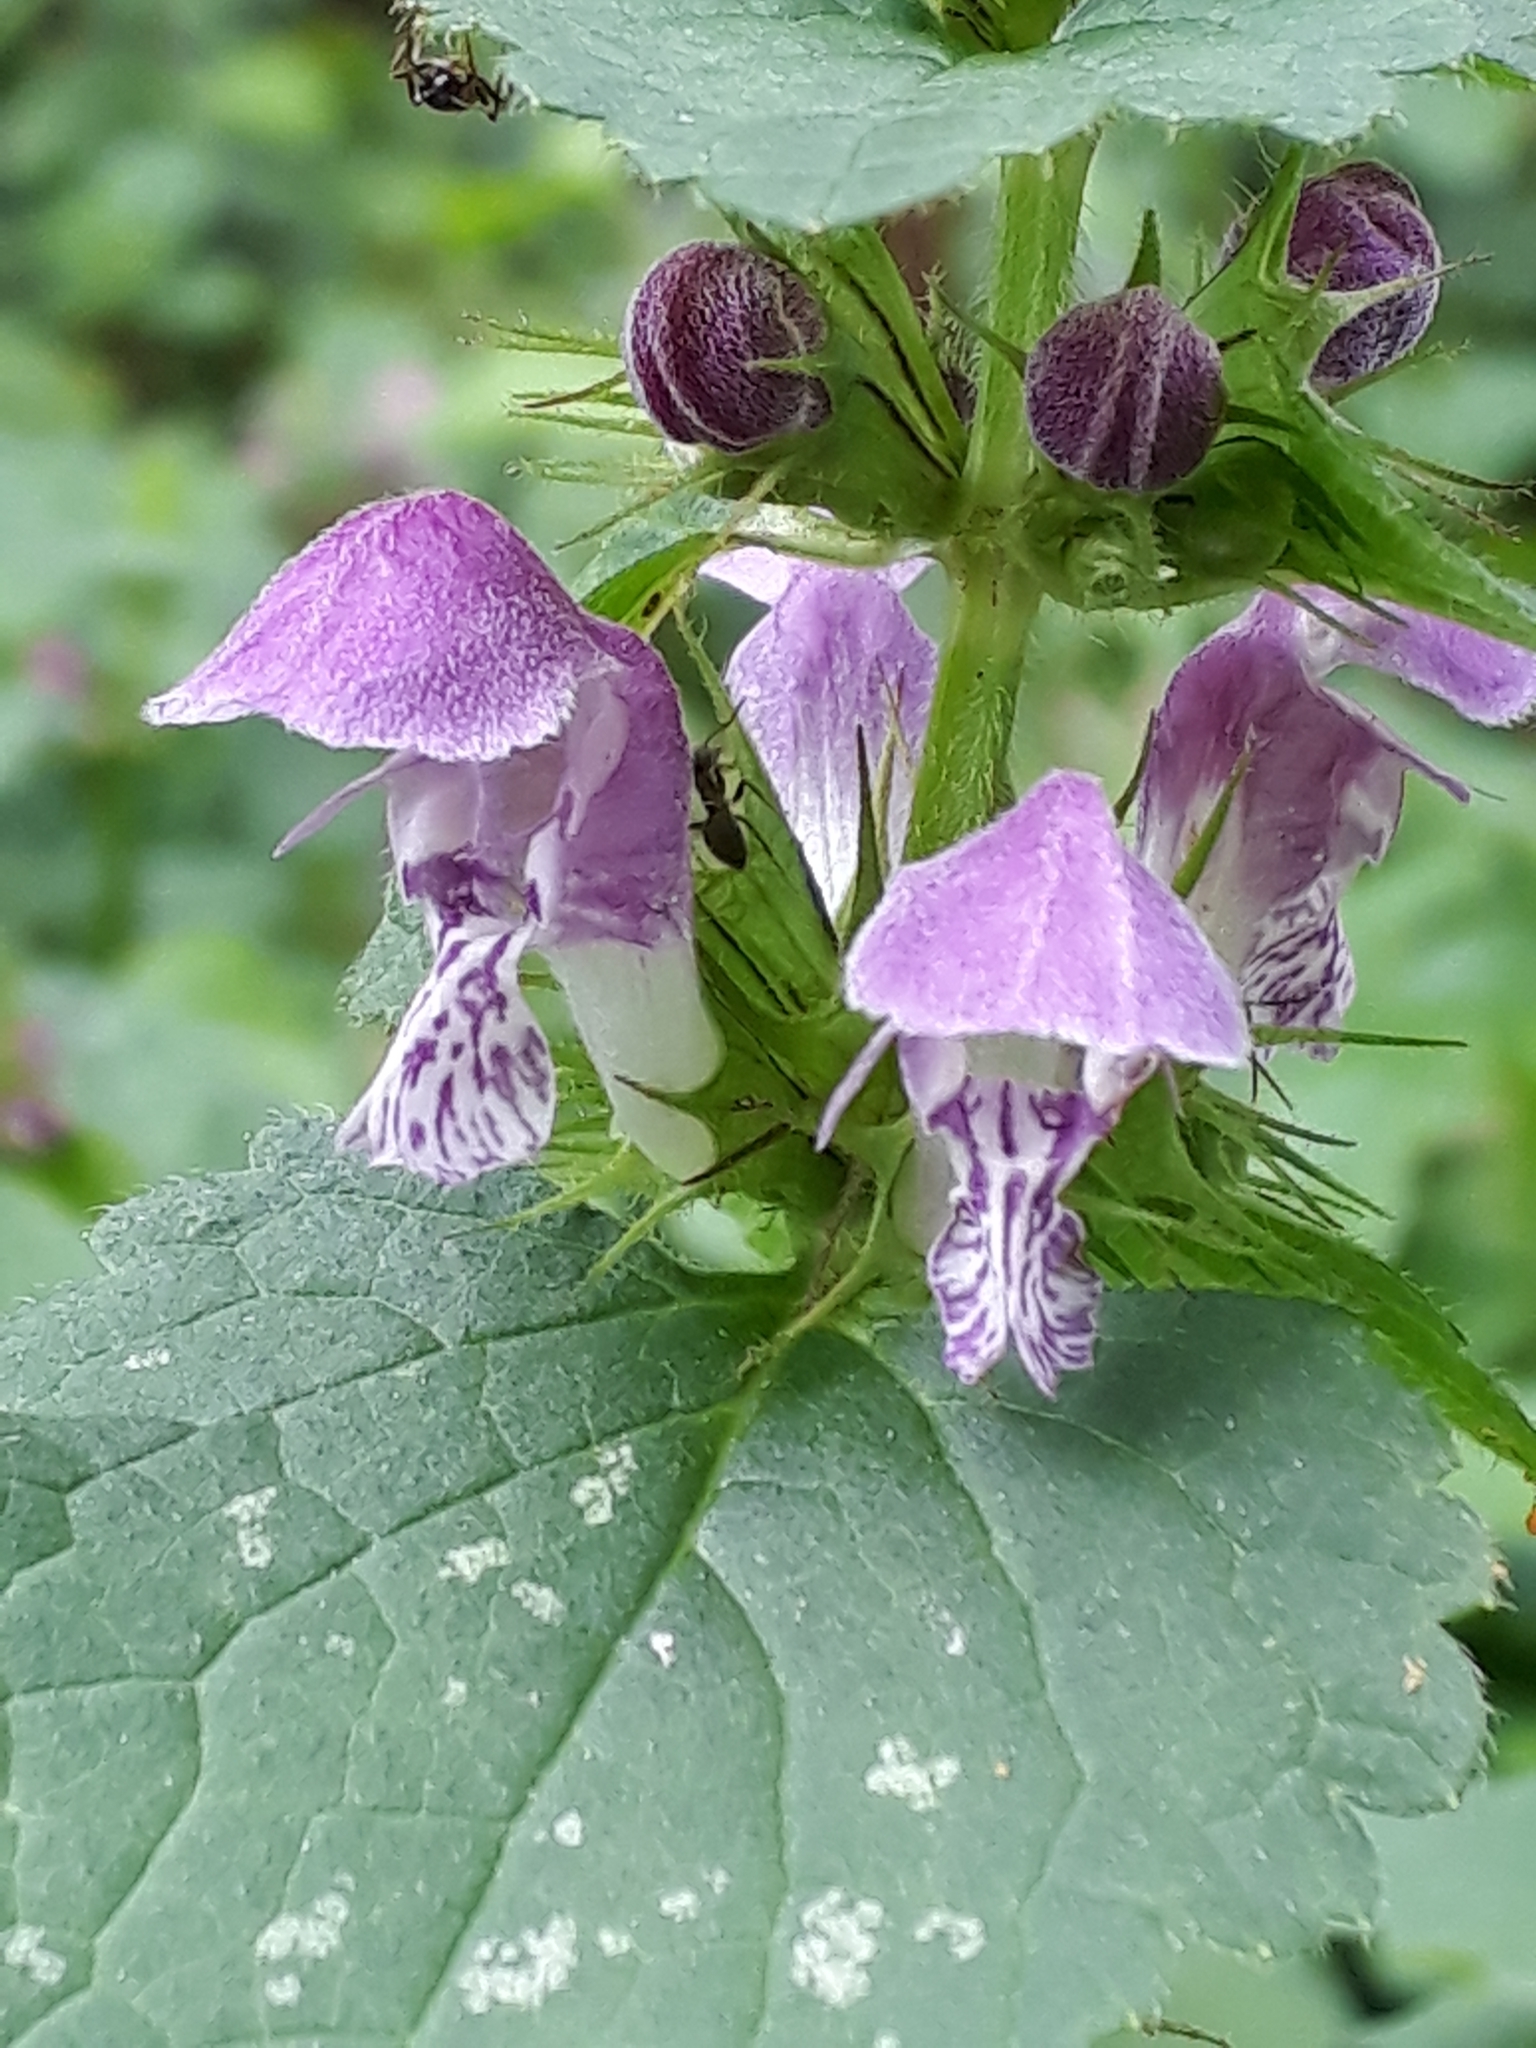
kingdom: Plantae
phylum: Tracheophyta
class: Magnoliopsida
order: Lamiales
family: Lamiaceae
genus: Lamium
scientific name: Lamium maculatum
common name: Spotted dead-nettle
